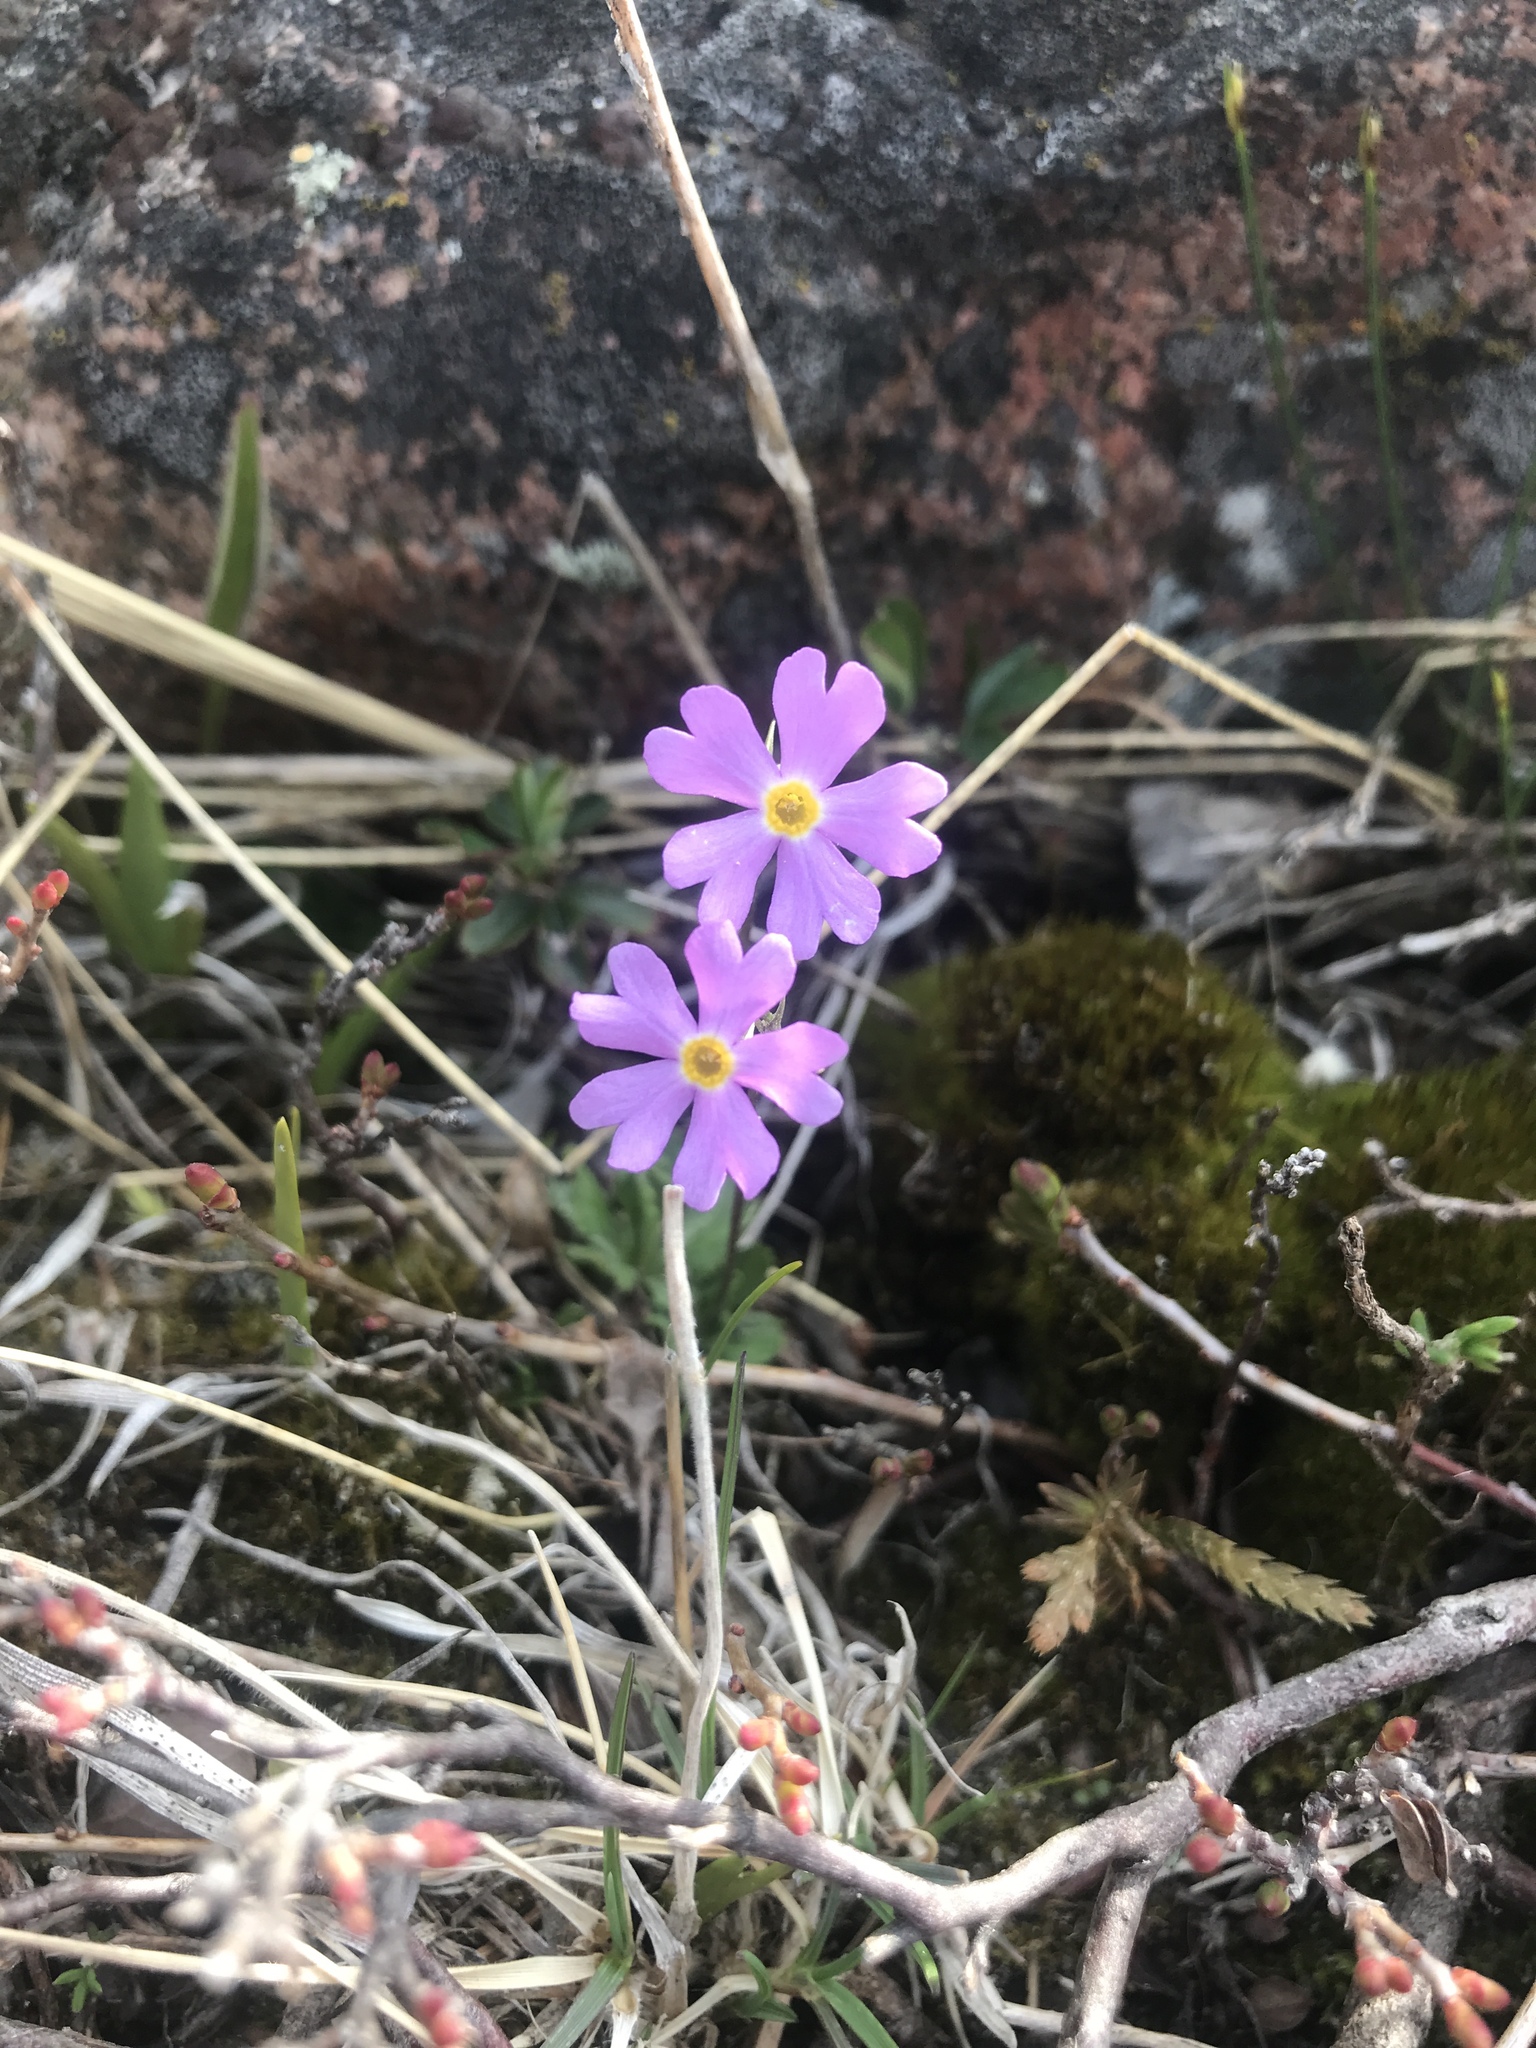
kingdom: Plantae
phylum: Tracheophyta
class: Magnoliopsida
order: Ericales
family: Primulaceae
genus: Primula
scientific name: Primula mistassinica
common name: Bird's-eye primrose
